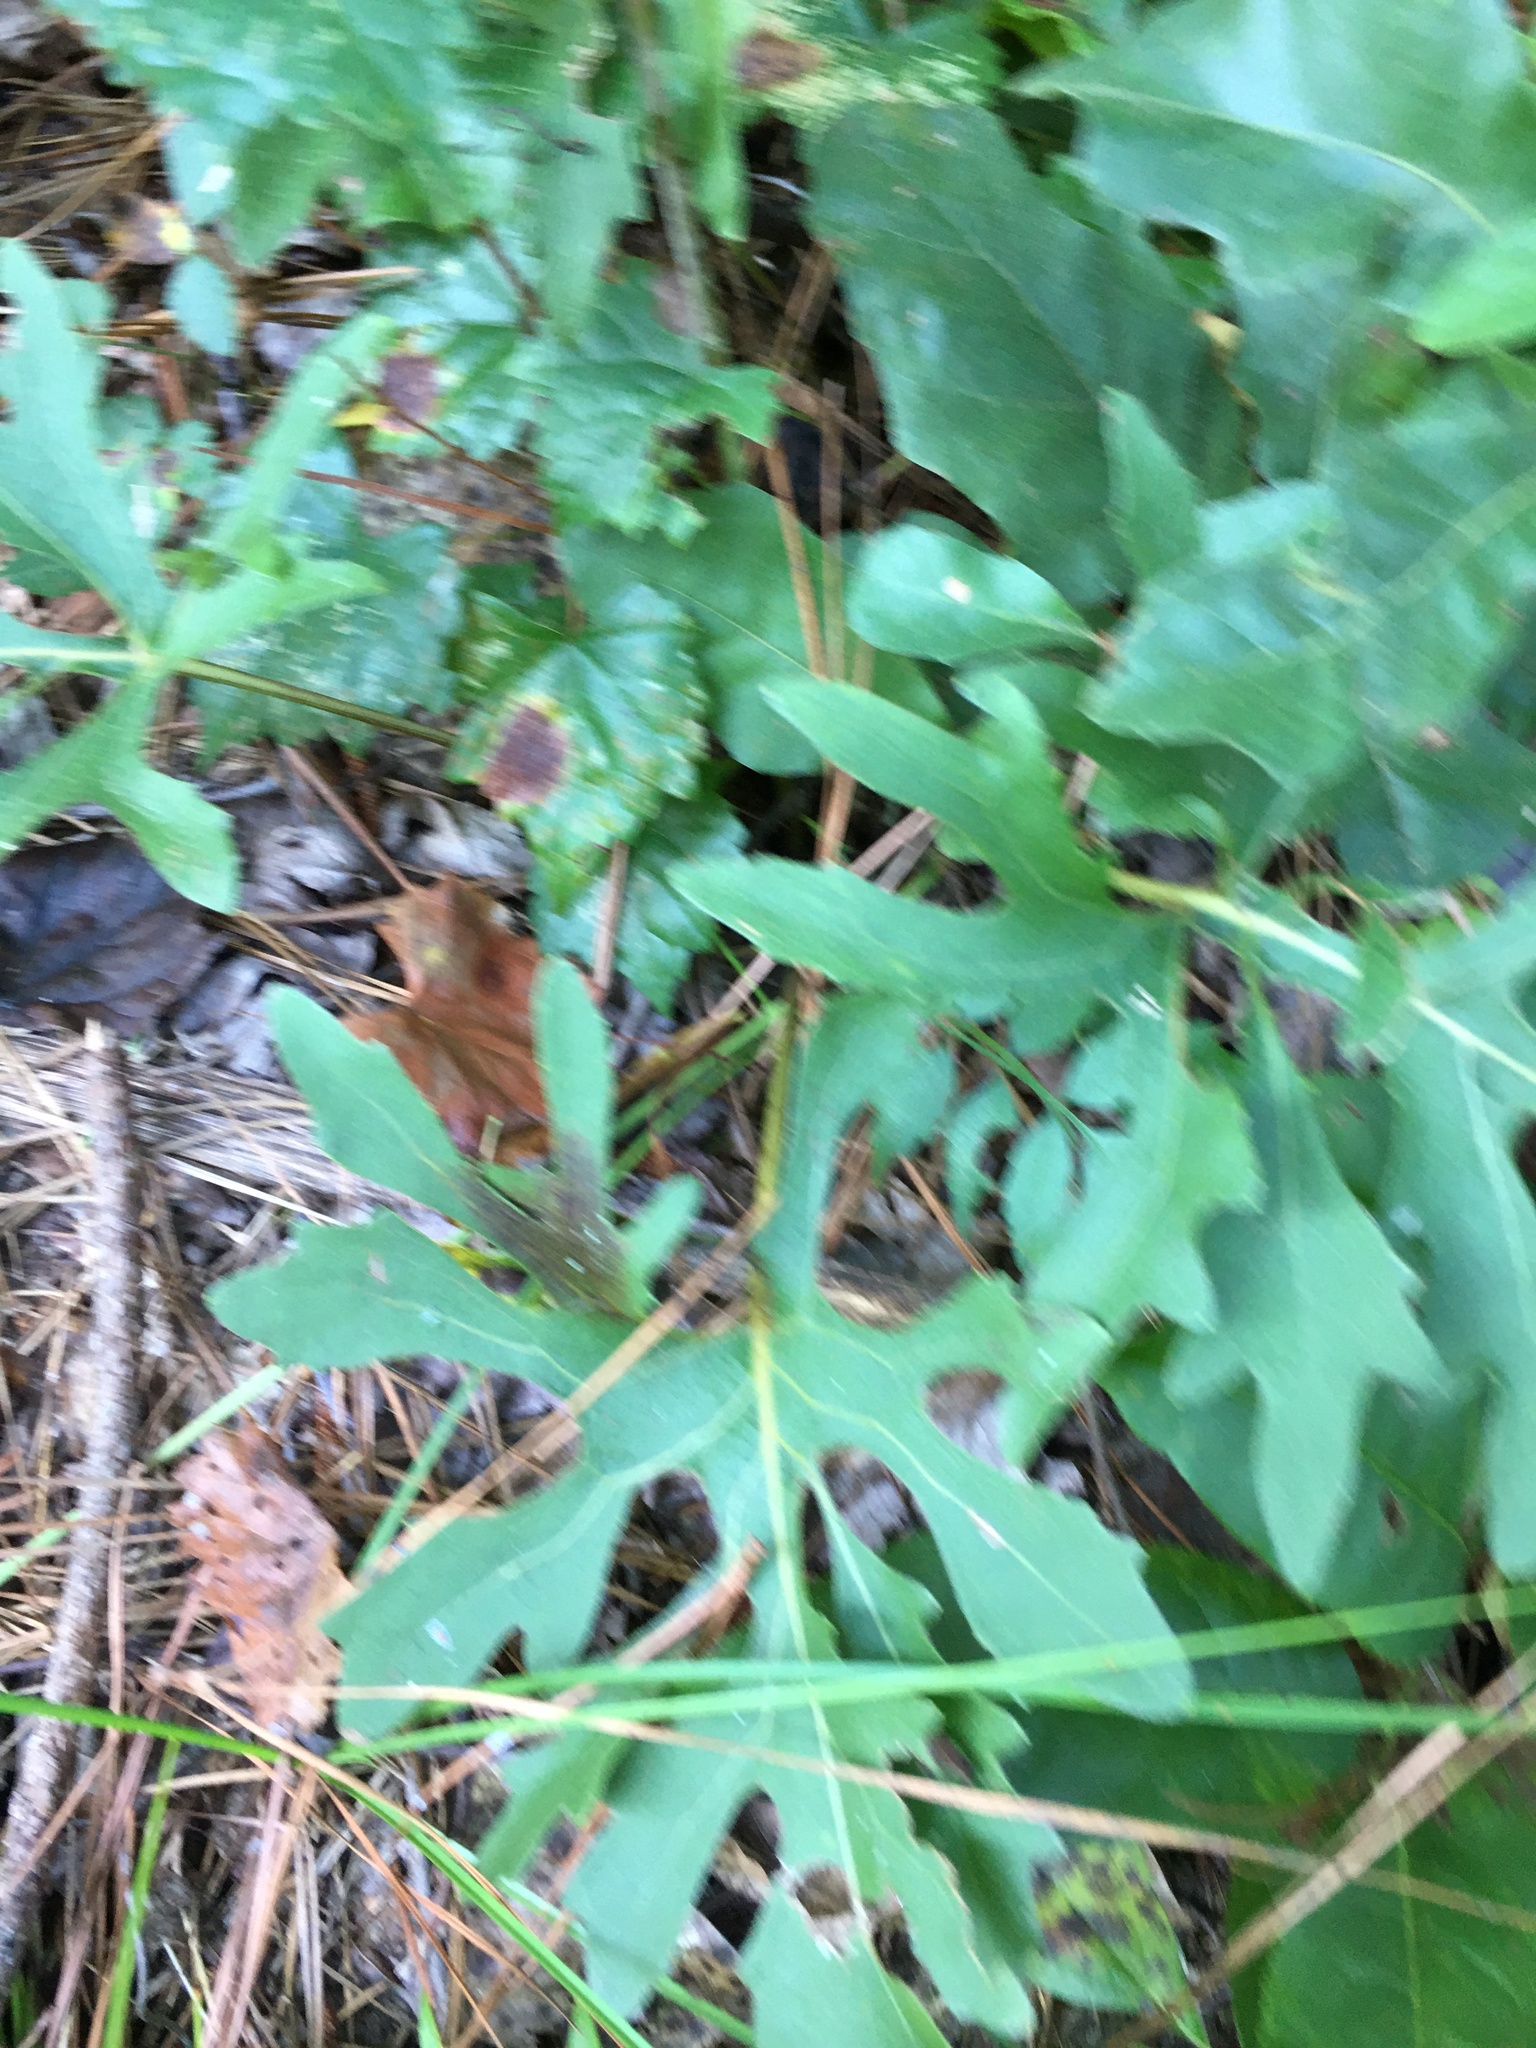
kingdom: Plantae
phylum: Tracheophyta
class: Magnoliopsida
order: Asterales
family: Asteraceae
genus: Silphium
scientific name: Silphium compositum
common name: Lesser basal-leaf rosinweed
